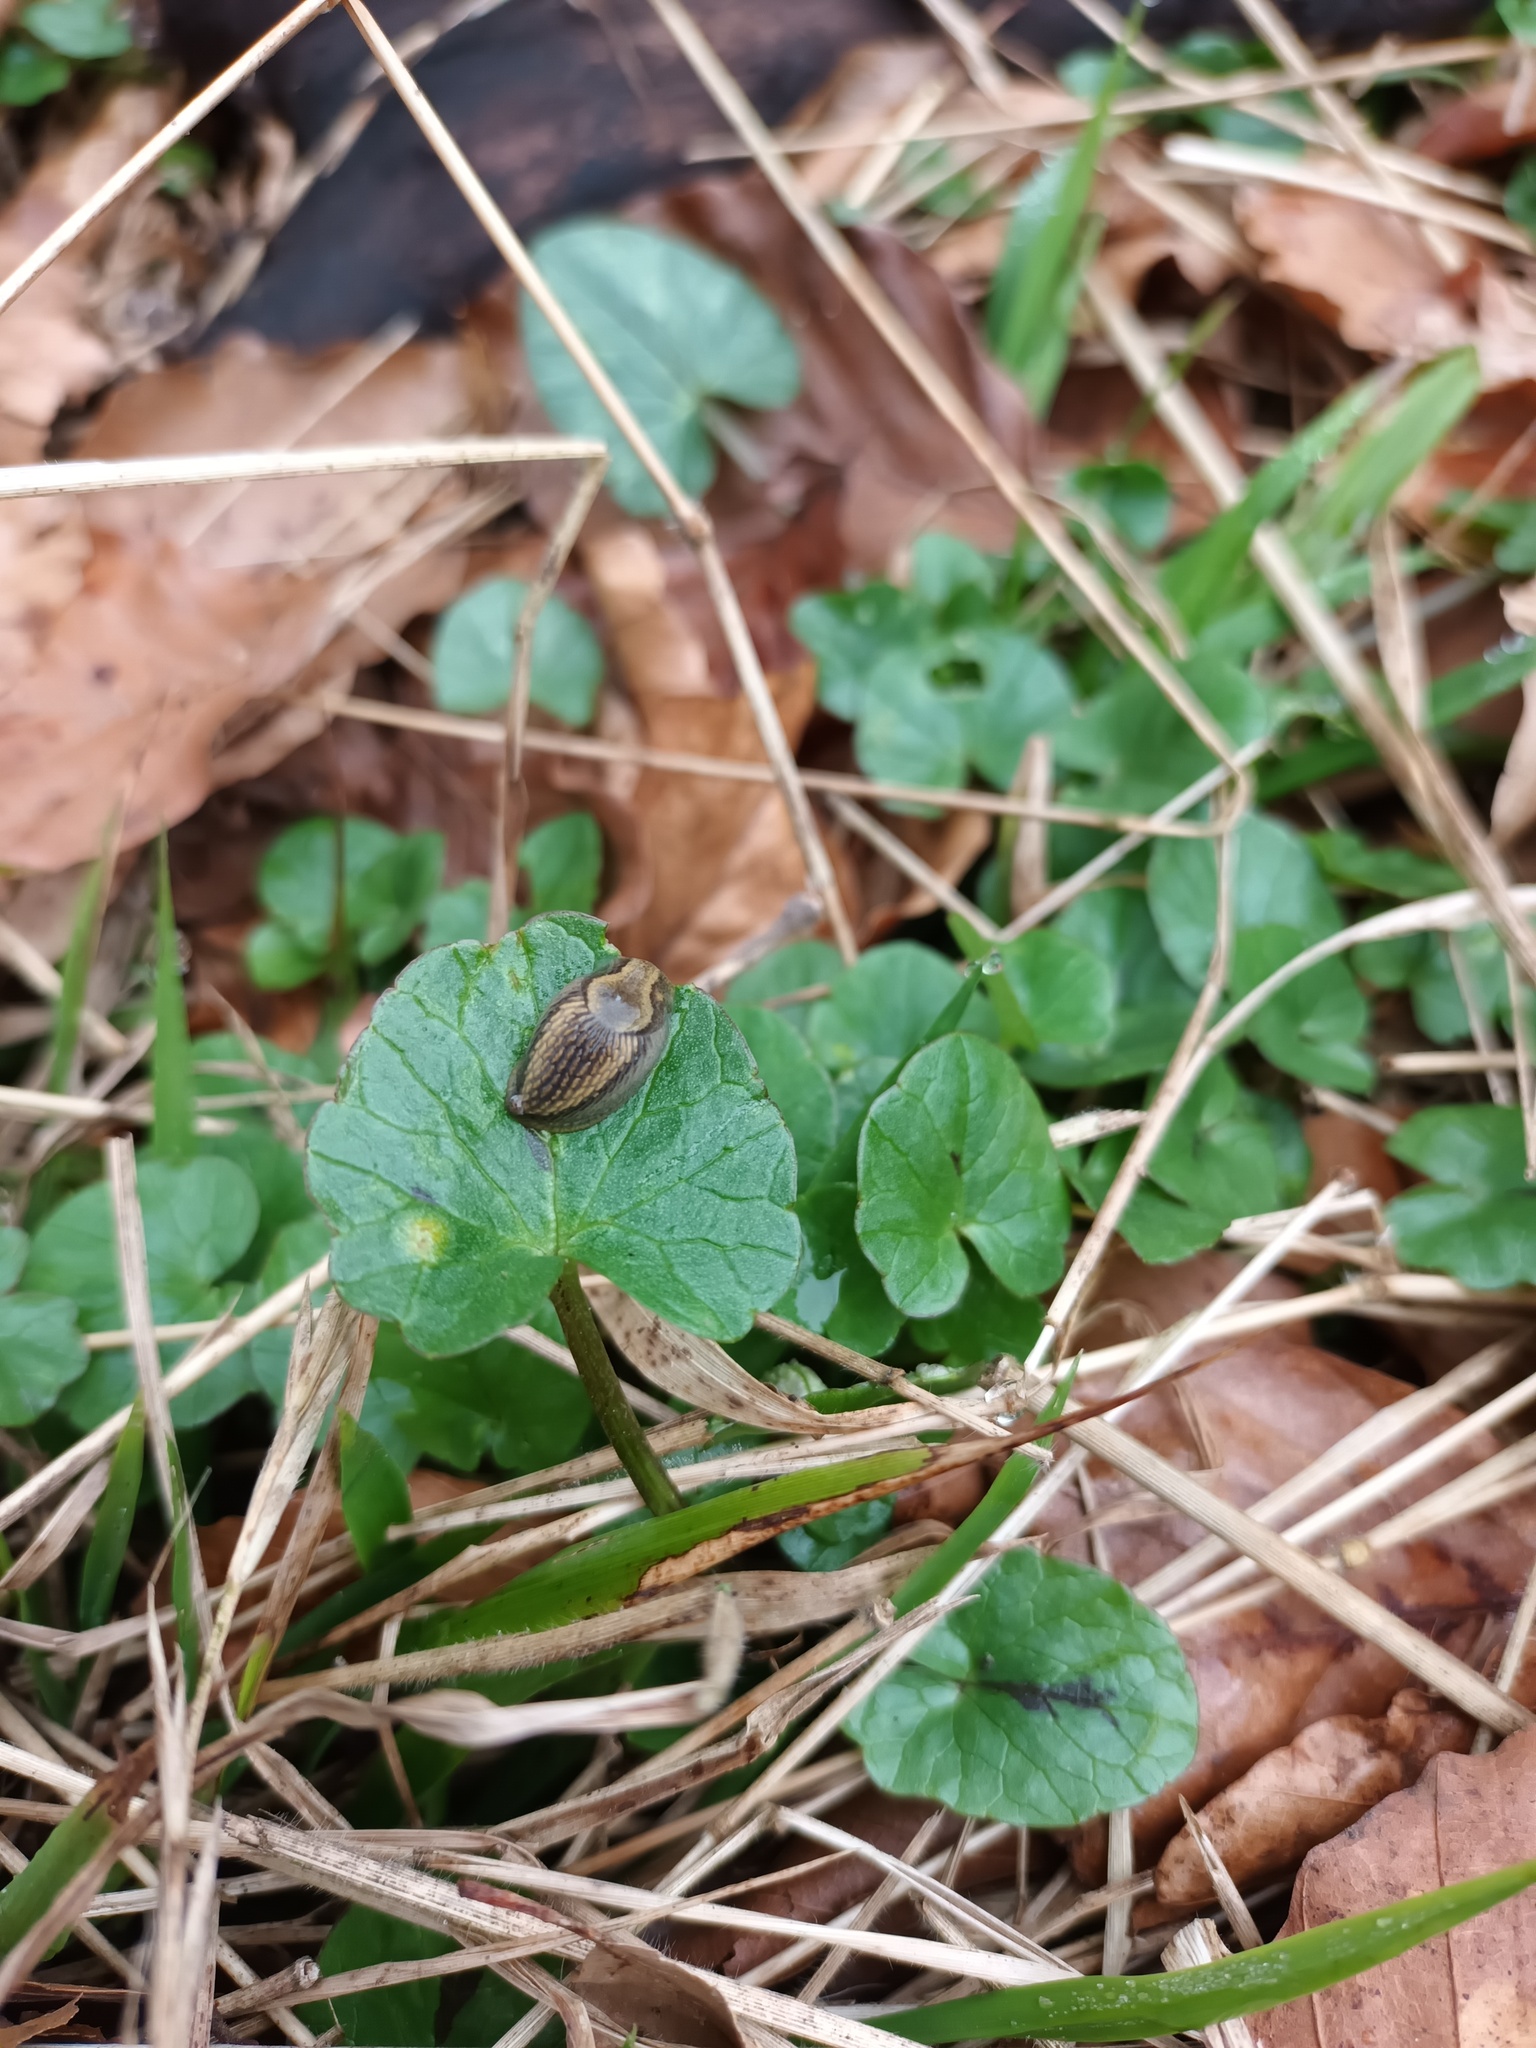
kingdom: Plantae
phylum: Tracheophyta
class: Magnoliopsida
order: Ranunculales
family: Ranunculaceae
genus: Ficaria
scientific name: Ficaria verna
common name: Lesser celandine
